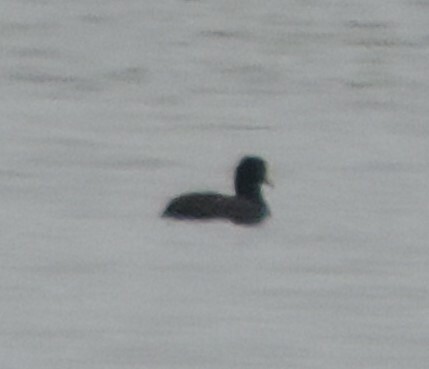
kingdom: Animalia
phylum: Chordata
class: Aves
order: Gruiformes
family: Rallidae
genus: Fulica
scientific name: Fulica americana
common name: American coot
